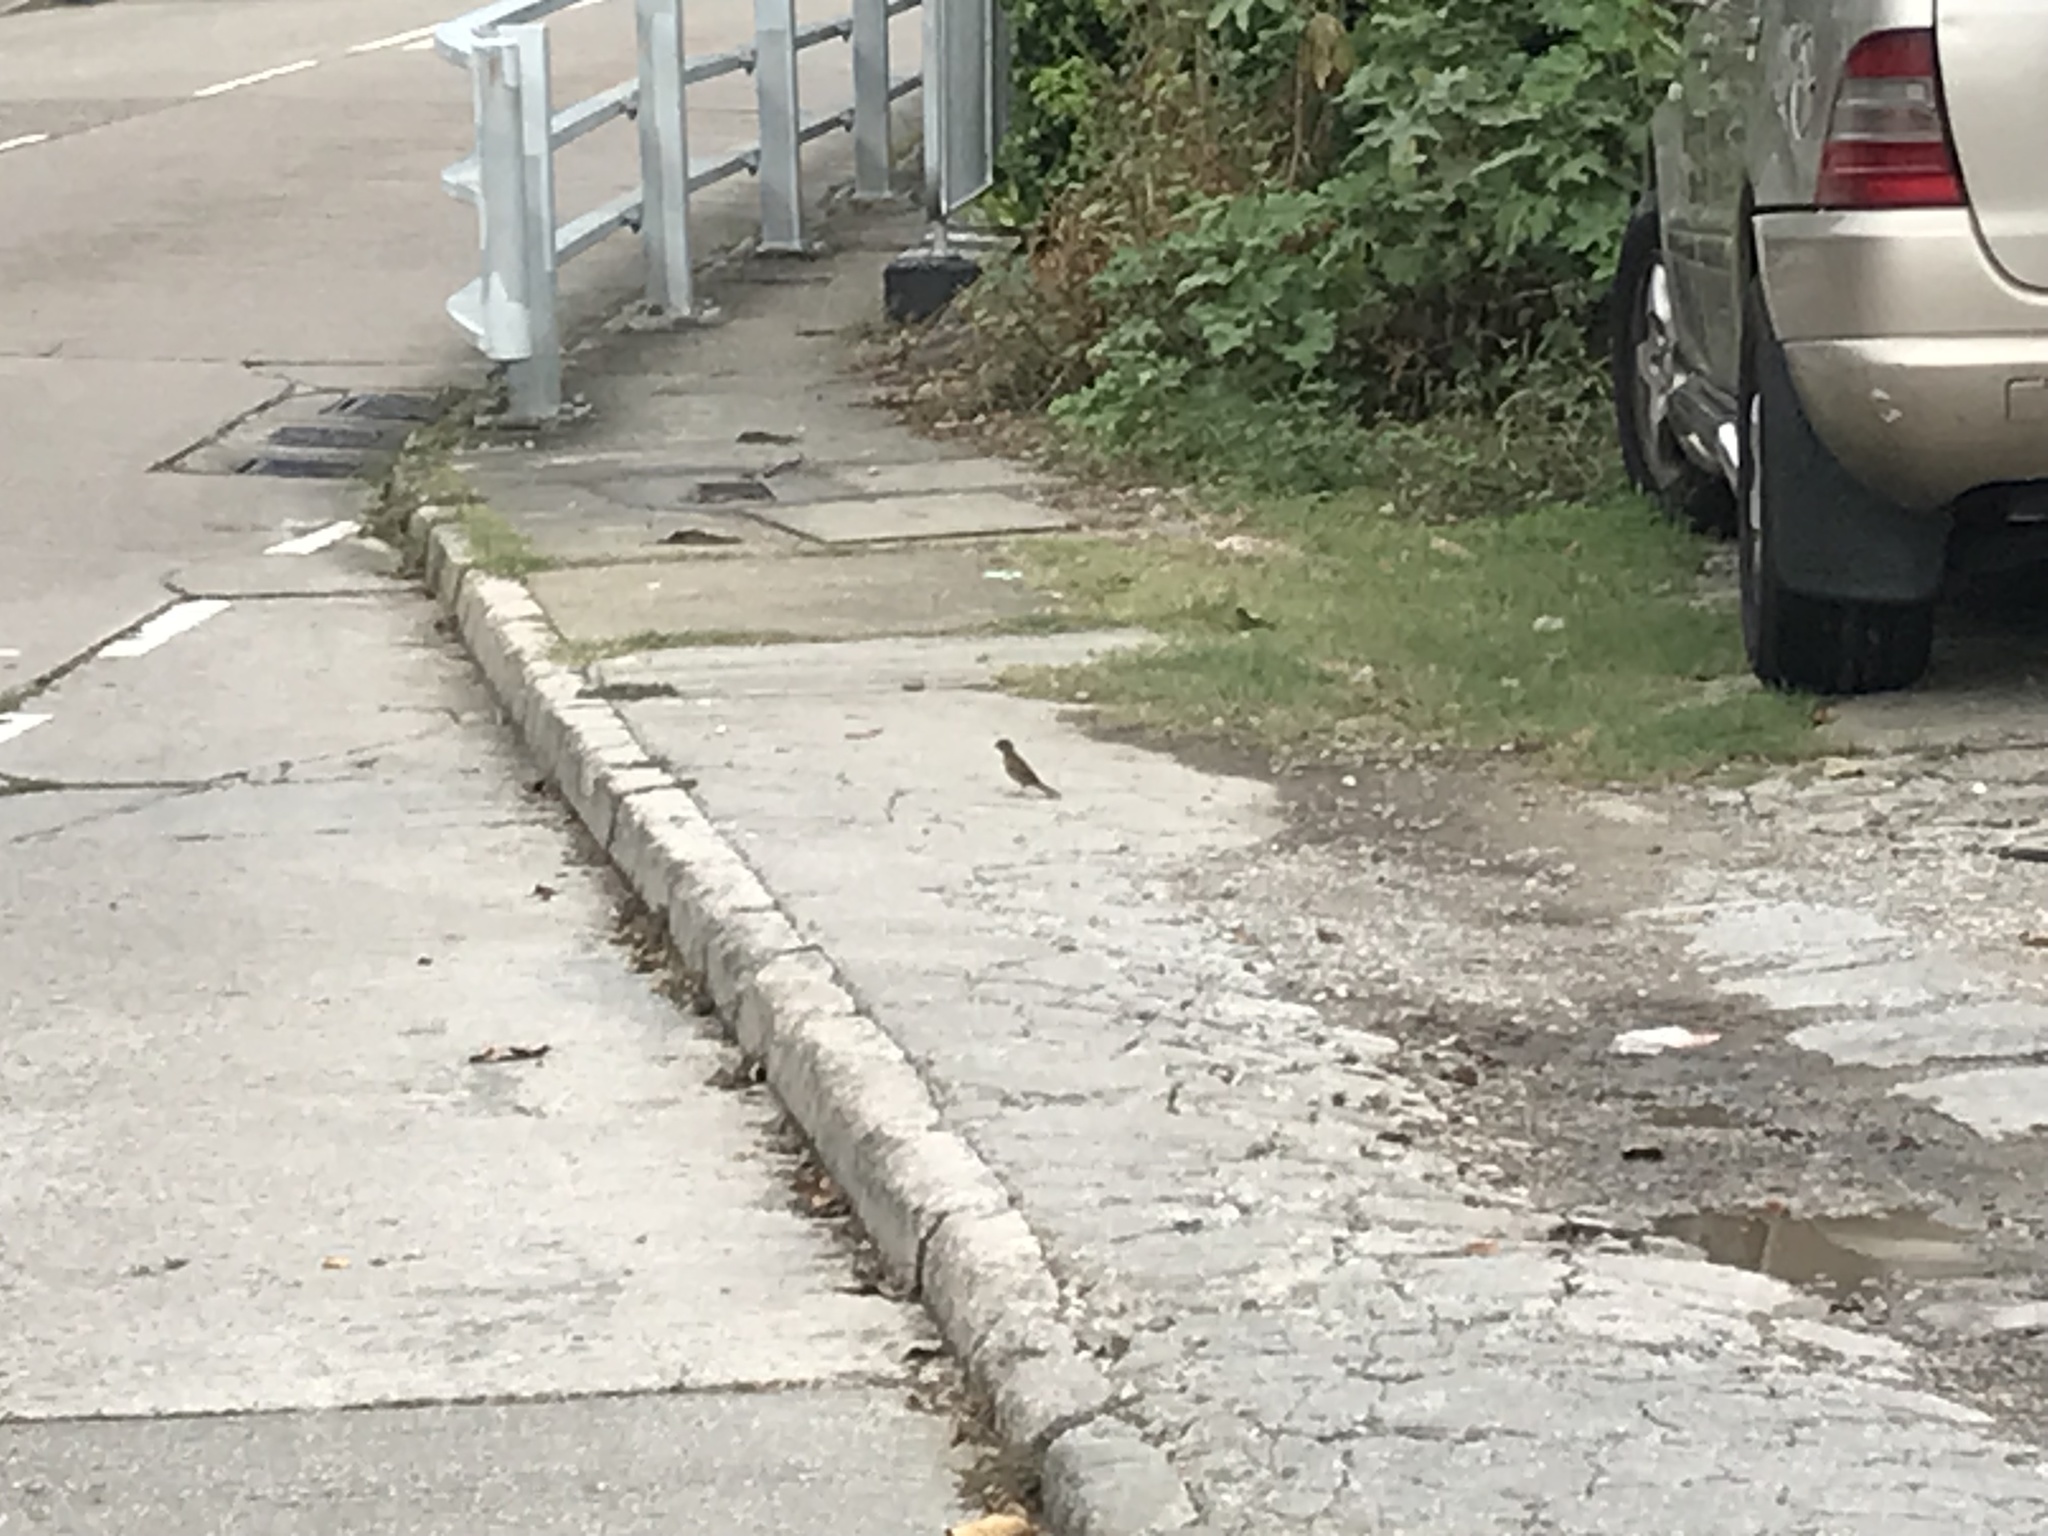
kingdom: Animalia
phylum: Chordata
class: Aves
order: Passeriformes
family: Passeridae
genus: Passer
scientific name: Passer montanus
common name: Eurasian tree sparrow
